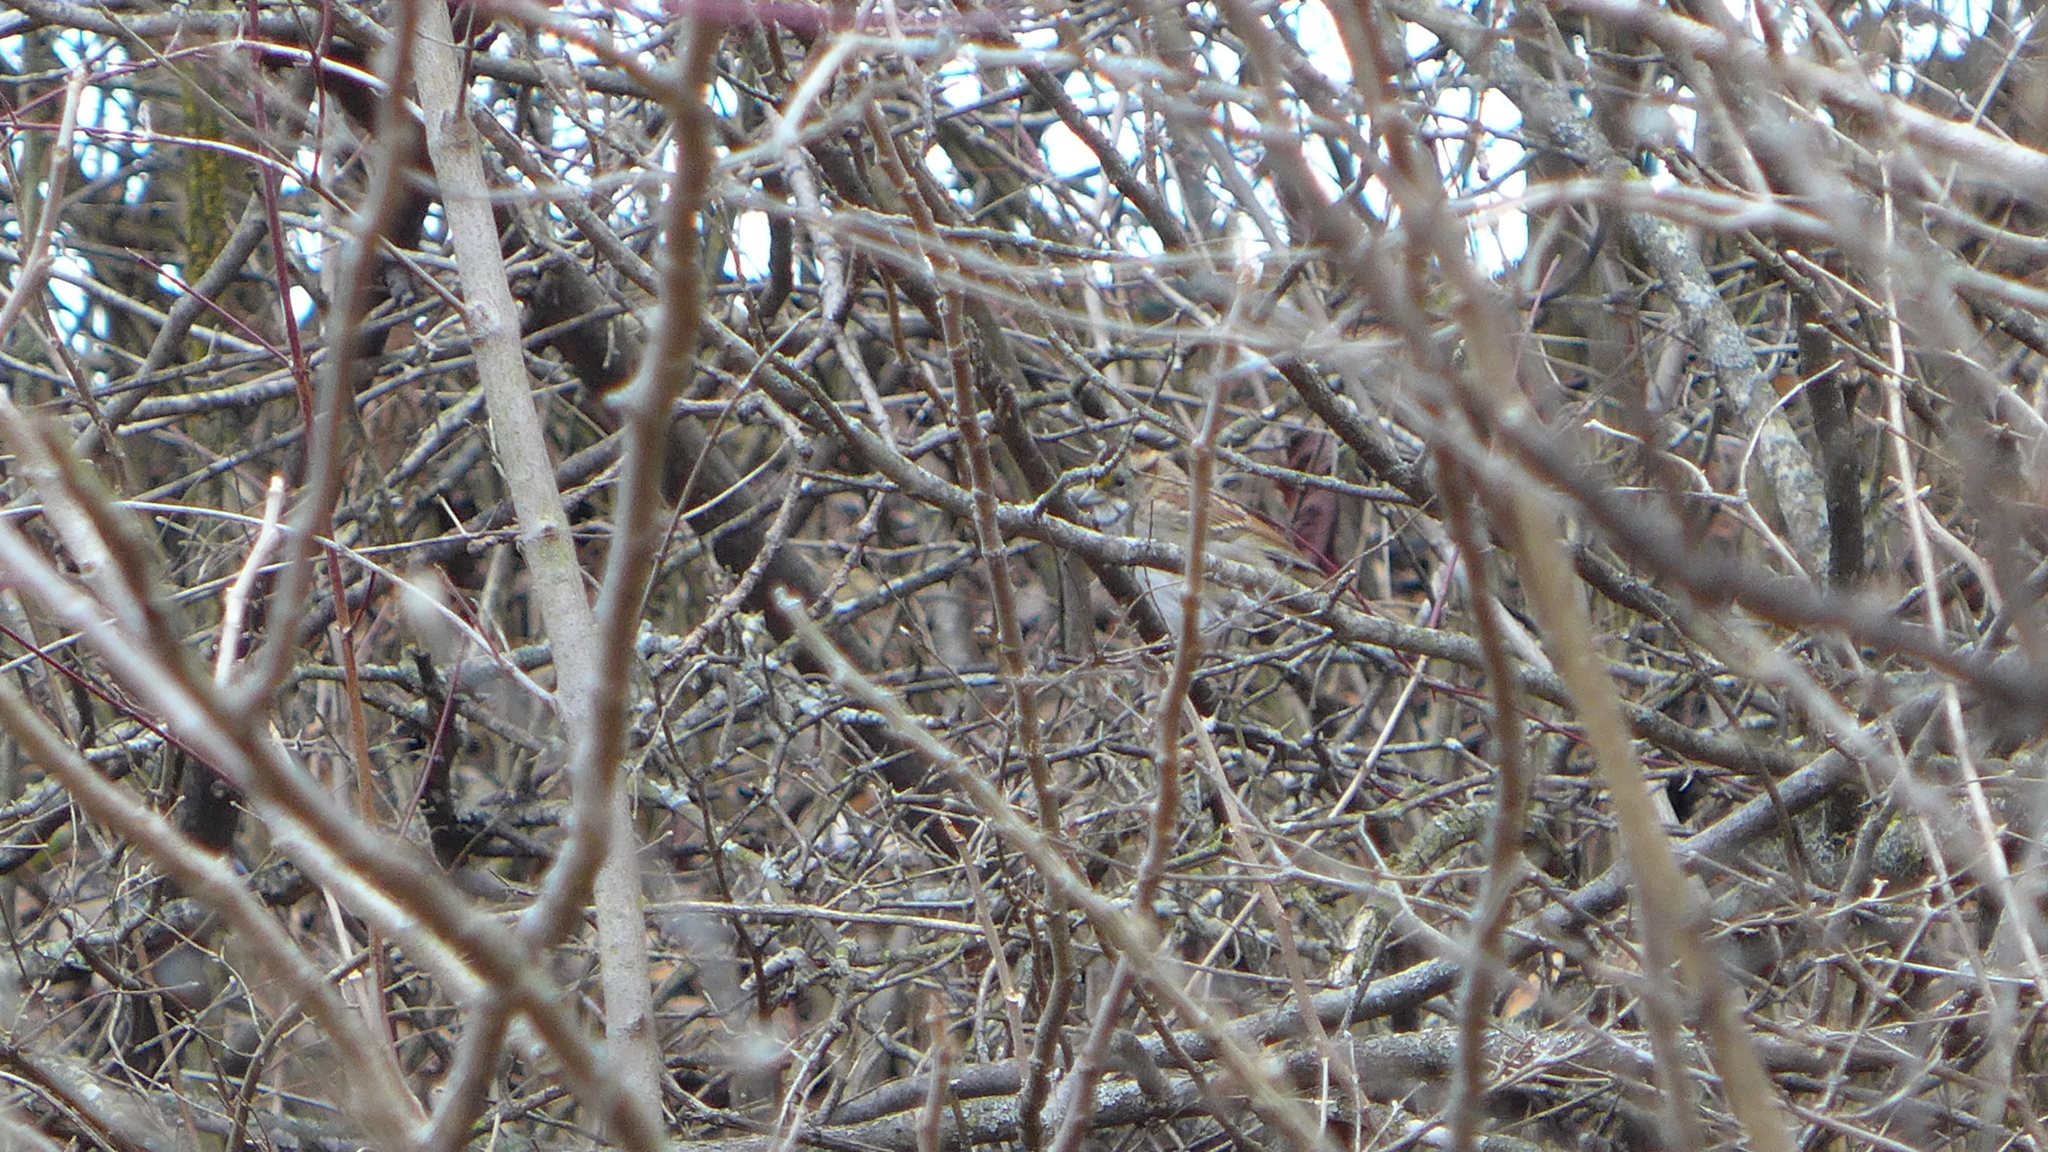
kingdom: Animalia
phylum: Chordata
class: Aves
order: Passeriformes
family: Passerellidae
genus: Zonotrichia
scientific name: Zonotrichia albicollis
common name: White-throated sparrow
